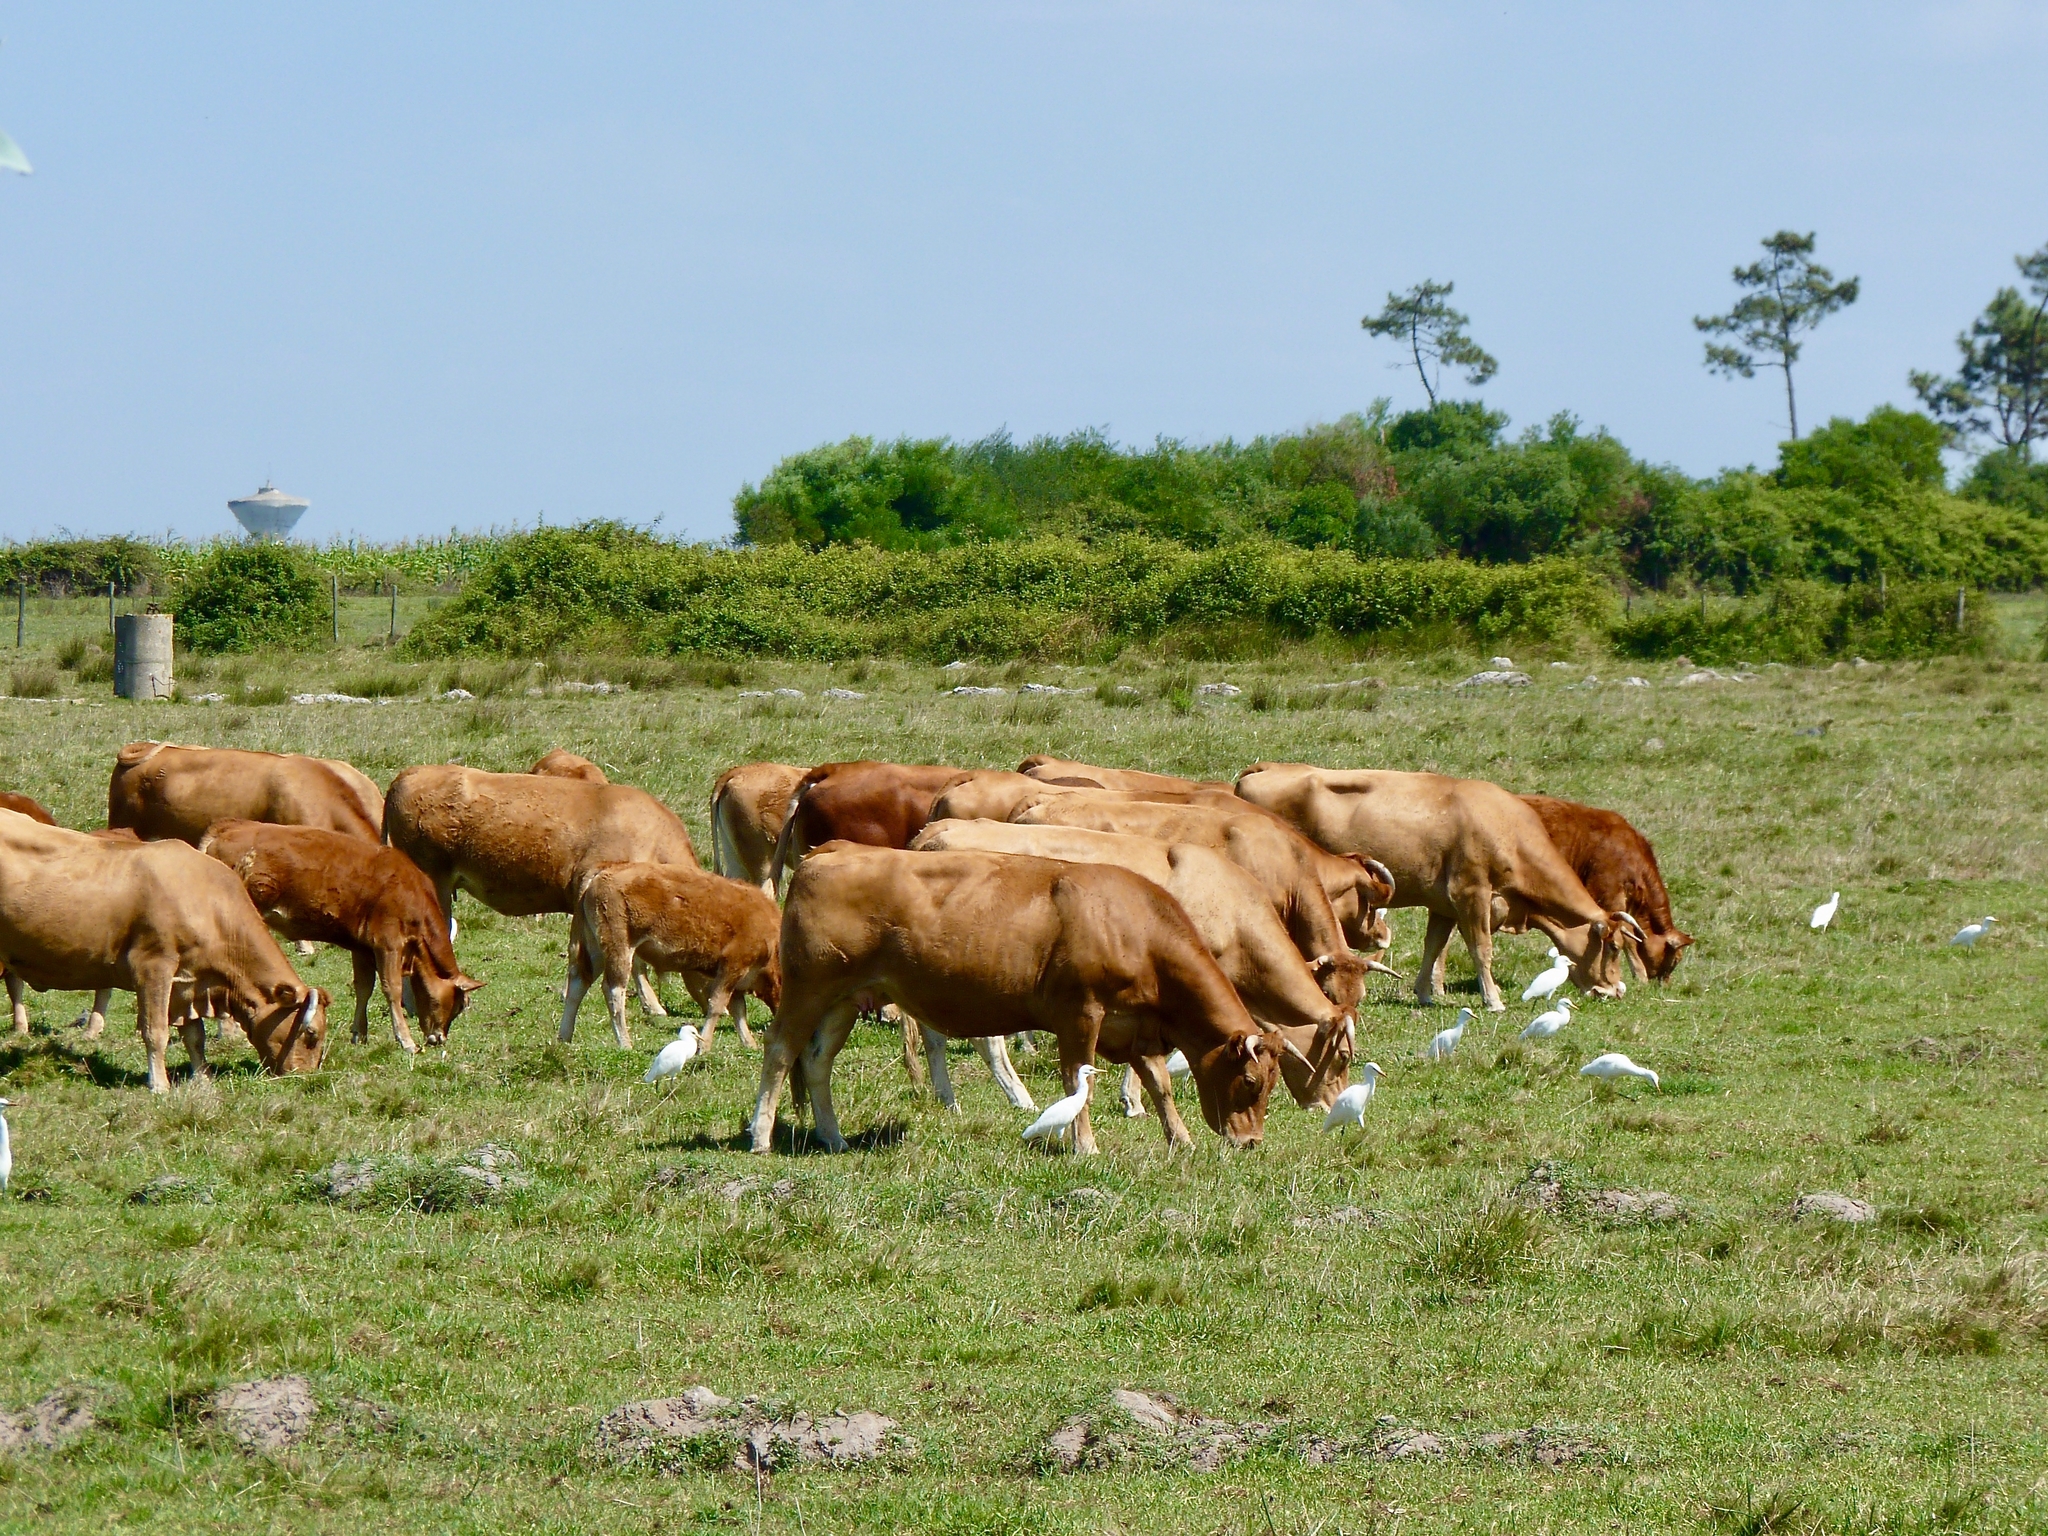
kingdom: Animalia
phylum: Chordata
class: Aves
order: Pelecaniformes
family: Ardeidae
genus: Bubulcus
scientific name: Bubulcus ibis
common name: Cattle egret
